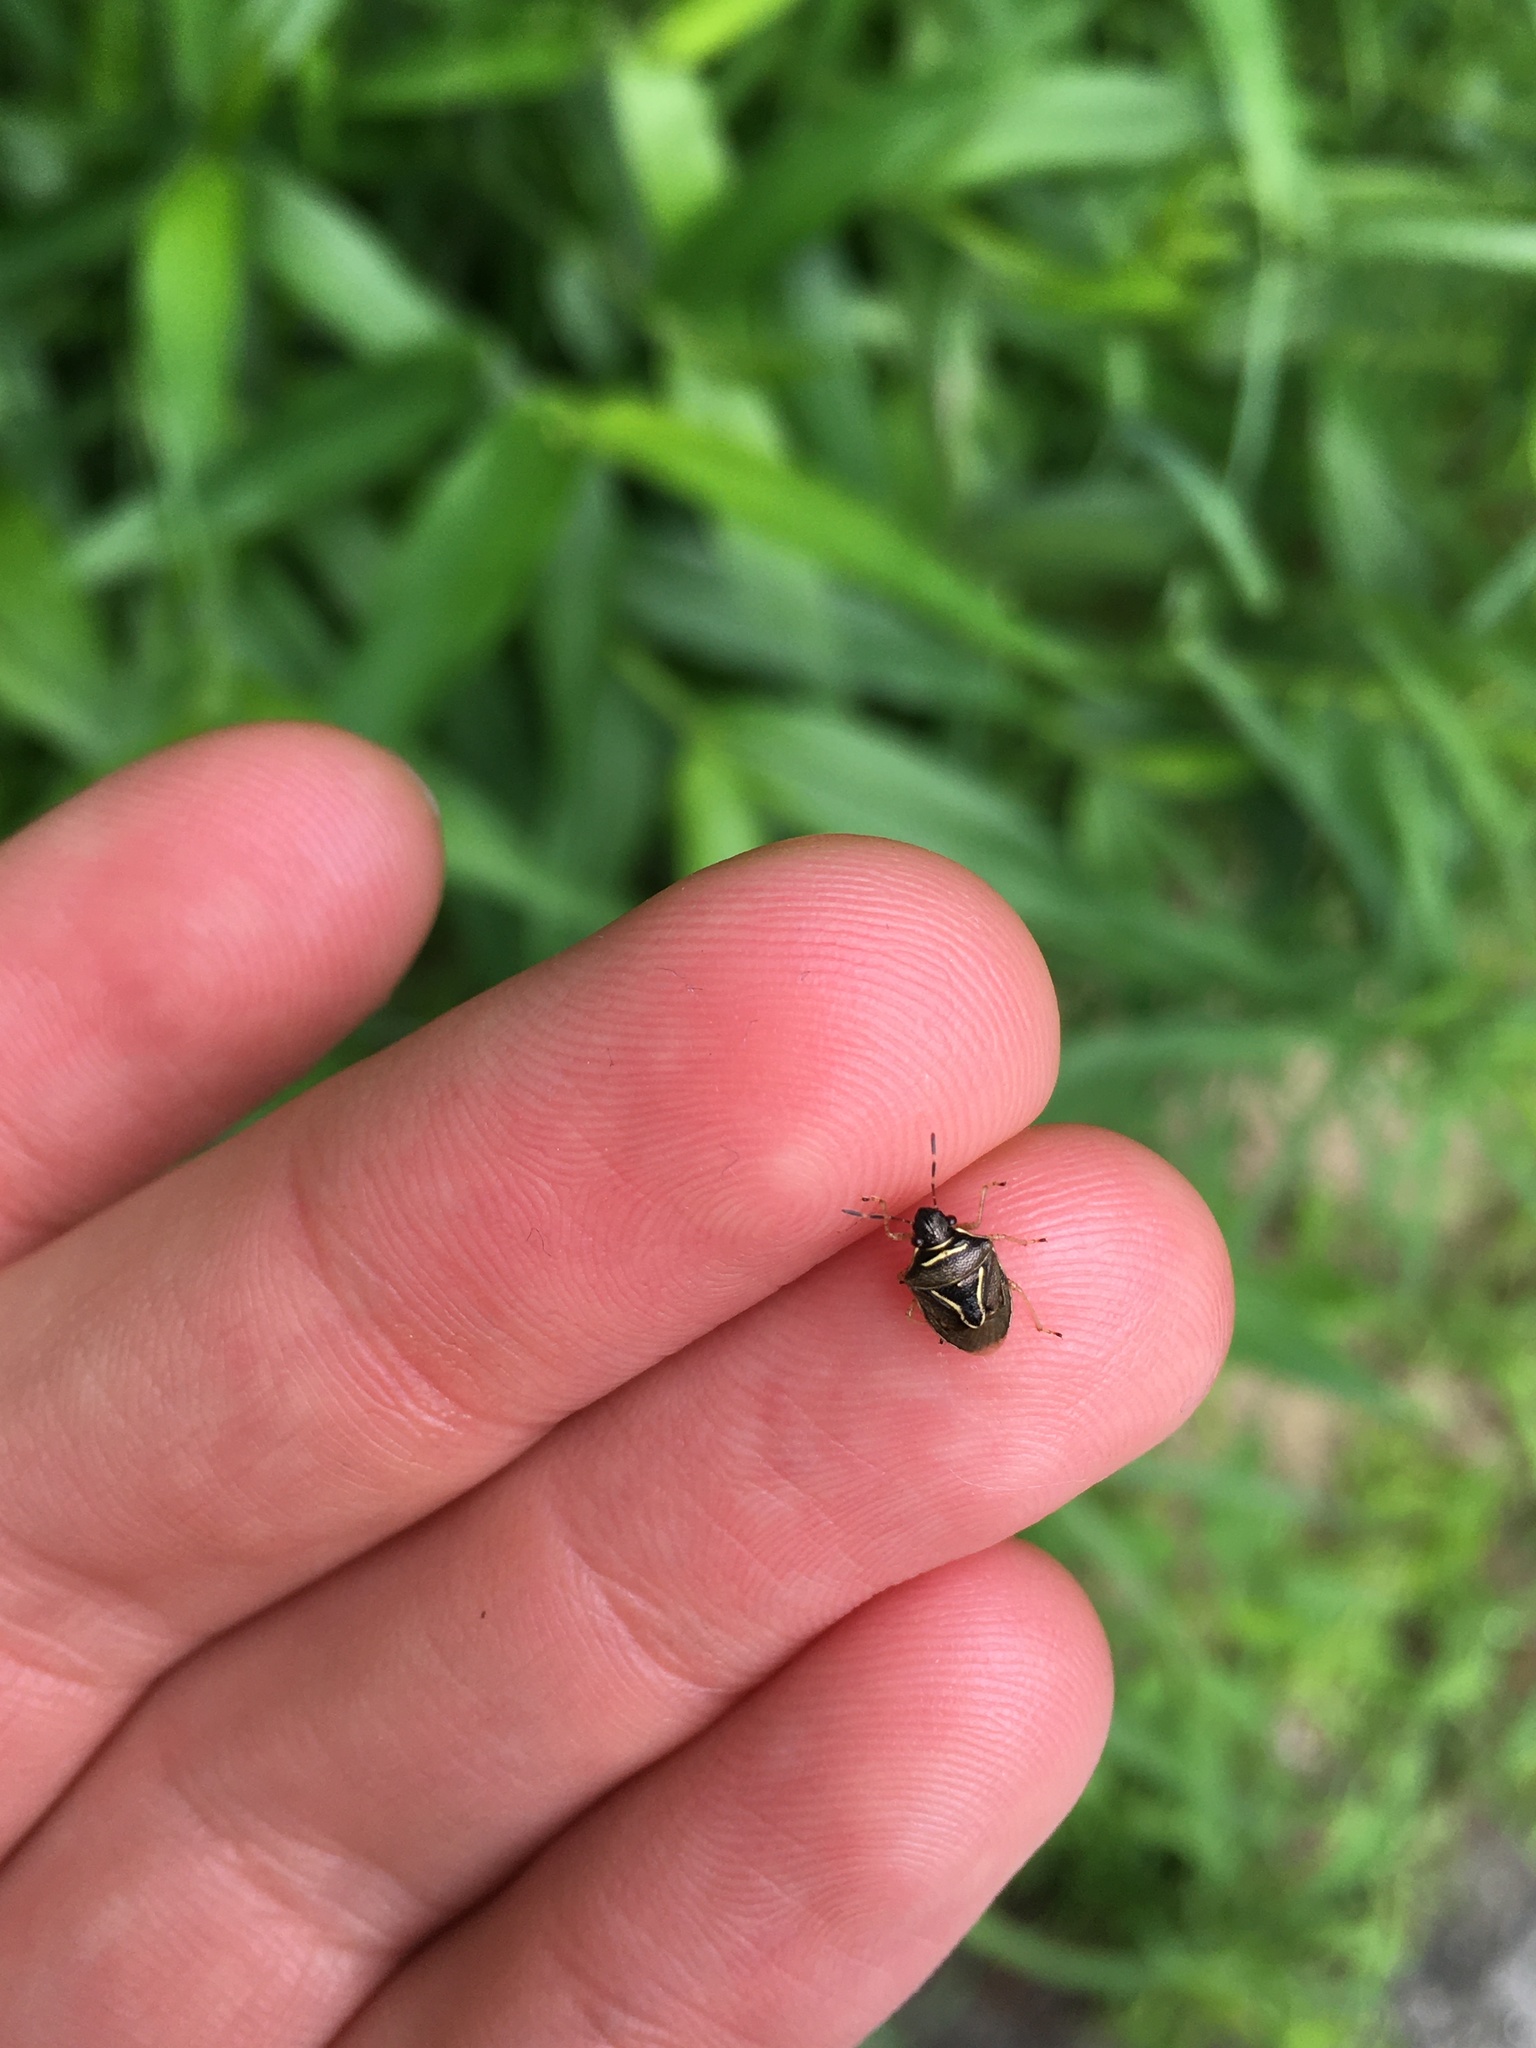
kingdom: Animalia
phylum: Arthropoda
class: Insecta
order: Hemiptera
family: Pentatomidae
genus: Mormidea
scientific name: Mormidea lugens
